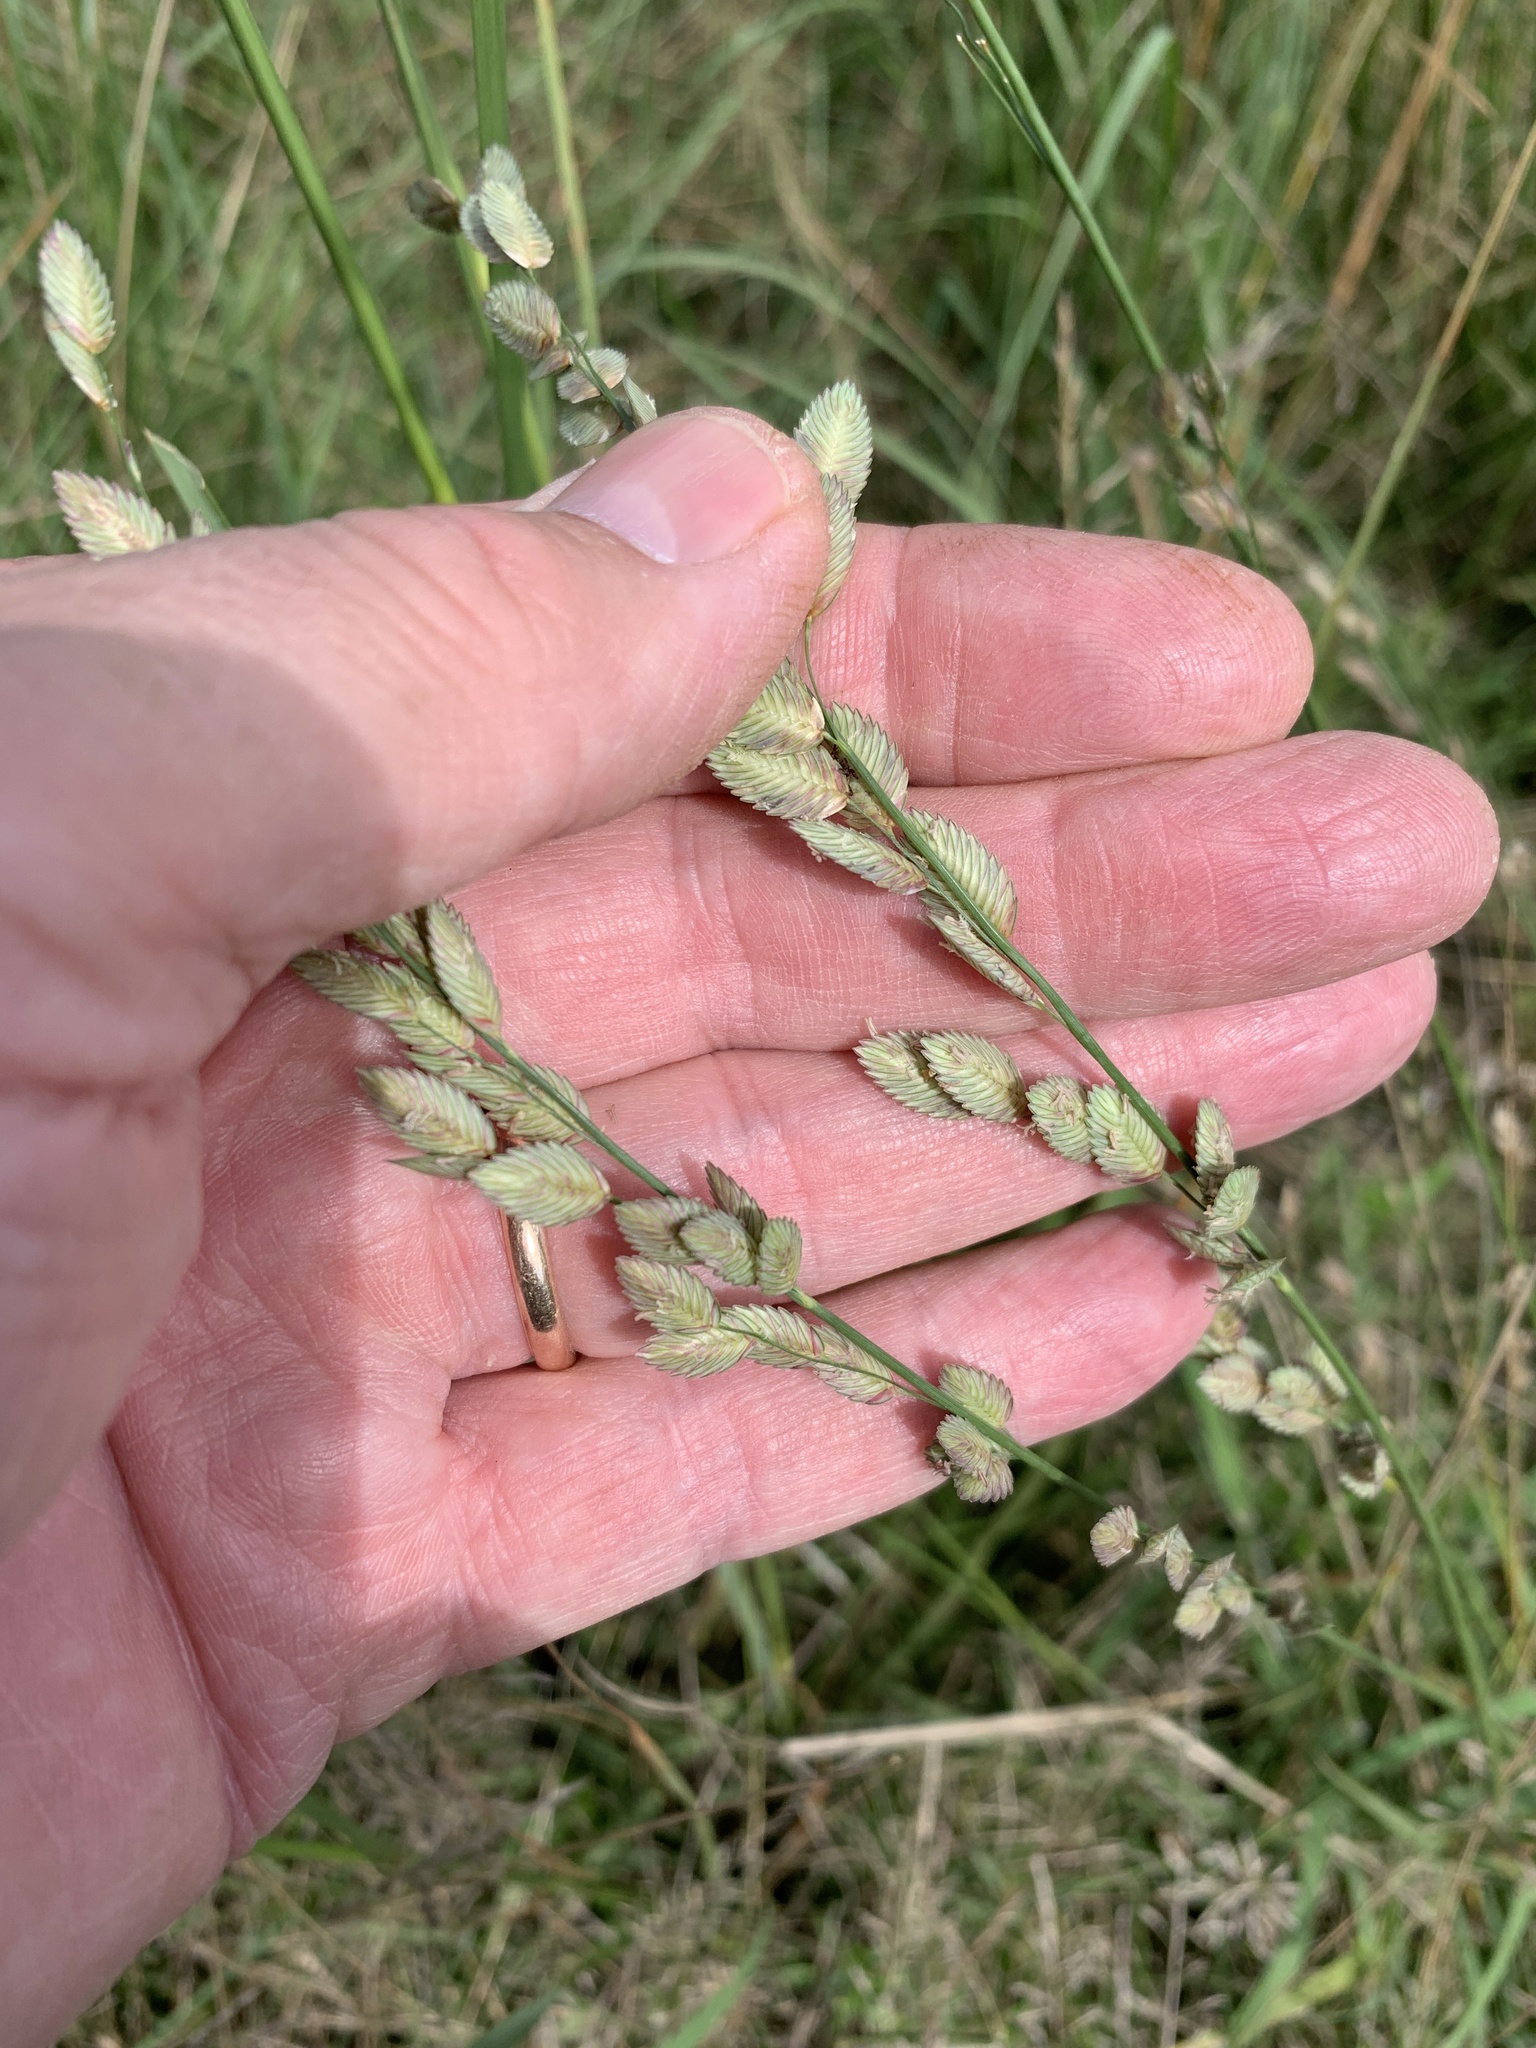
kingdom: Plantae
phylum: Tracheophyta
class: Liliopsida
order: Poales
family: Poaceae
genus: Eragrostis
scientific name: Eragrostis superba
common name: Wilman lovegrass
